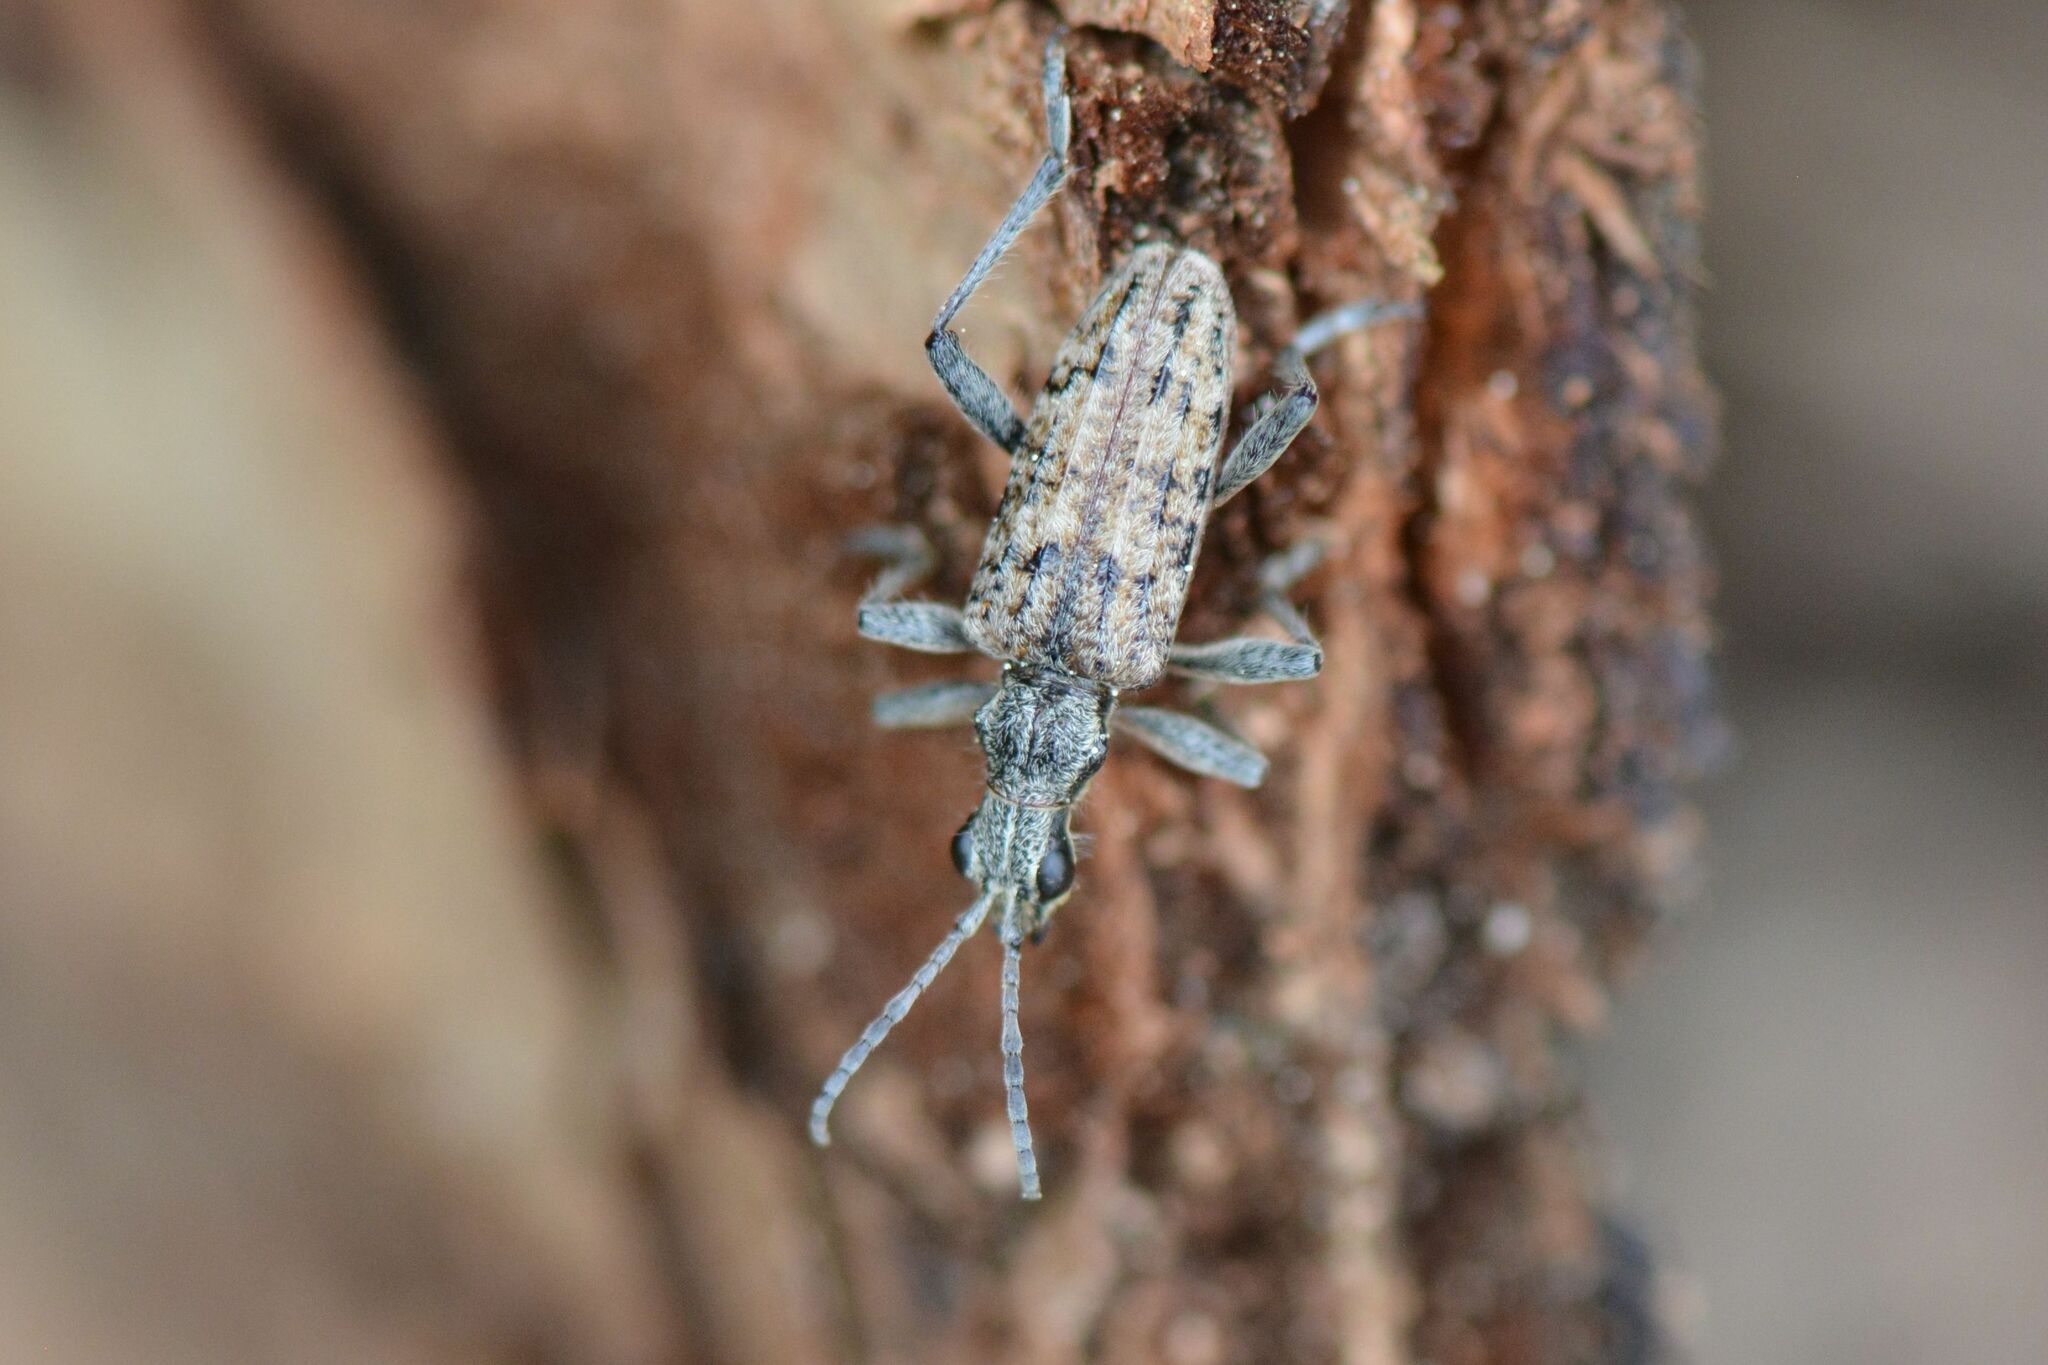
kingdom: Animalia
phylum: Arthropoda
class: Insecta
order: Coleoptera
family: Cerambycidae
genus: Rhagium
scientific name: Rhagium inquisitor
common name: Ribbed pine borer
